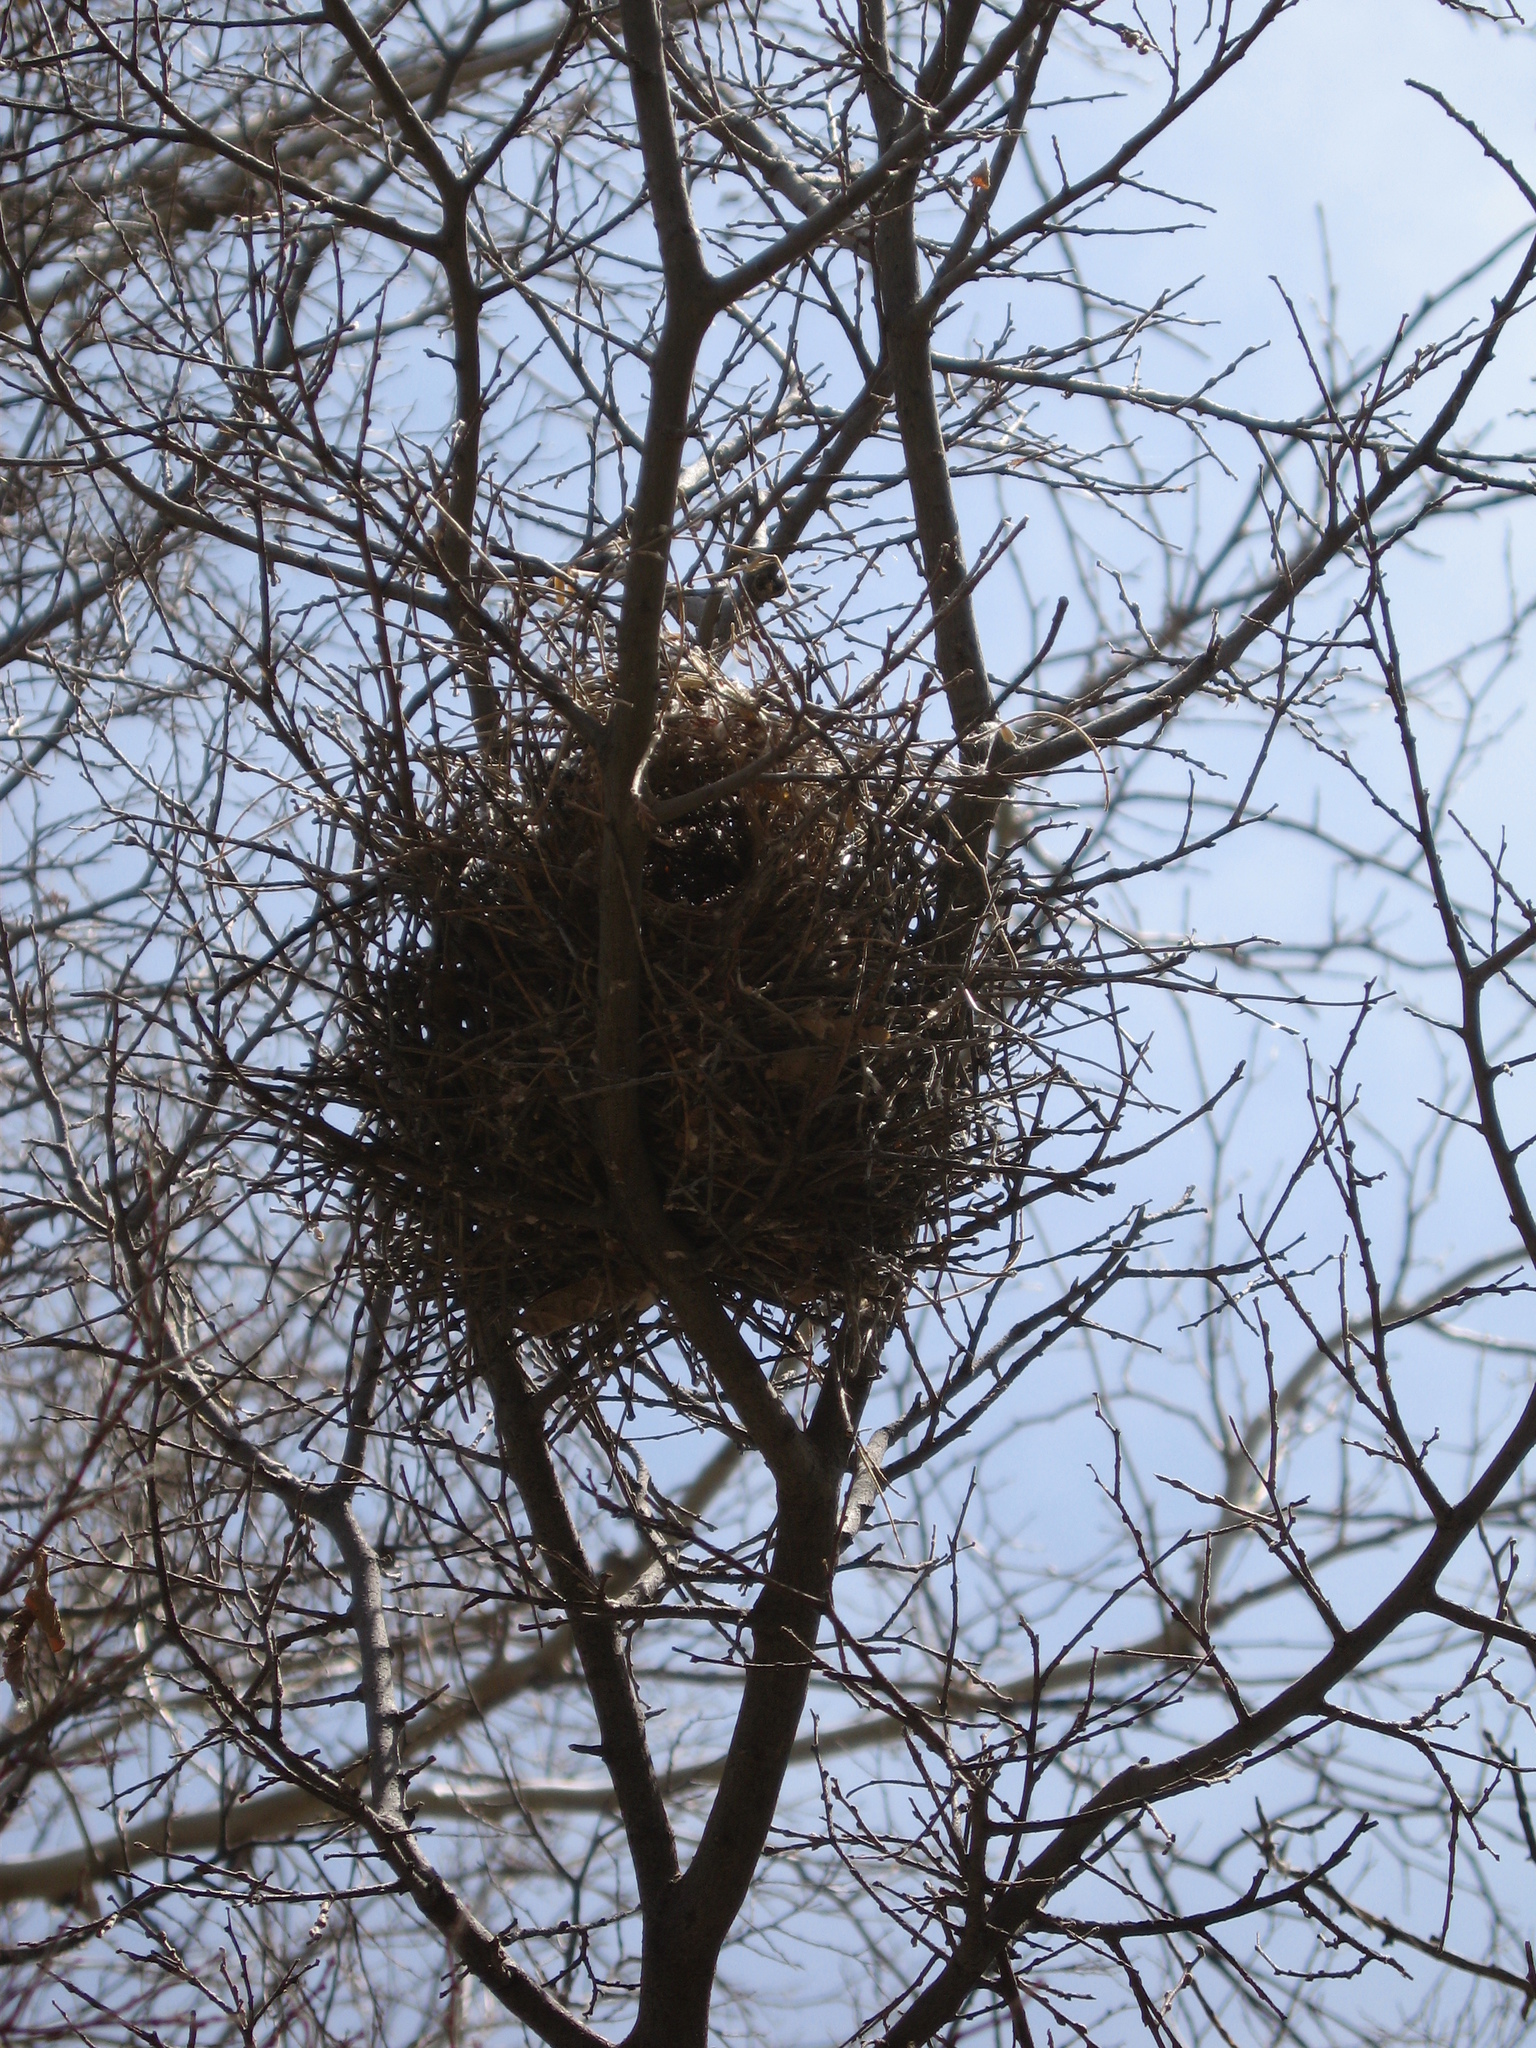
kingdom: Animalia
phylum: Chordata
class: Aves
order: Passeriformes
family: Remizidae
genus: Auriparus
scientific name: Auriparus flaviceps
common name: Verdin
